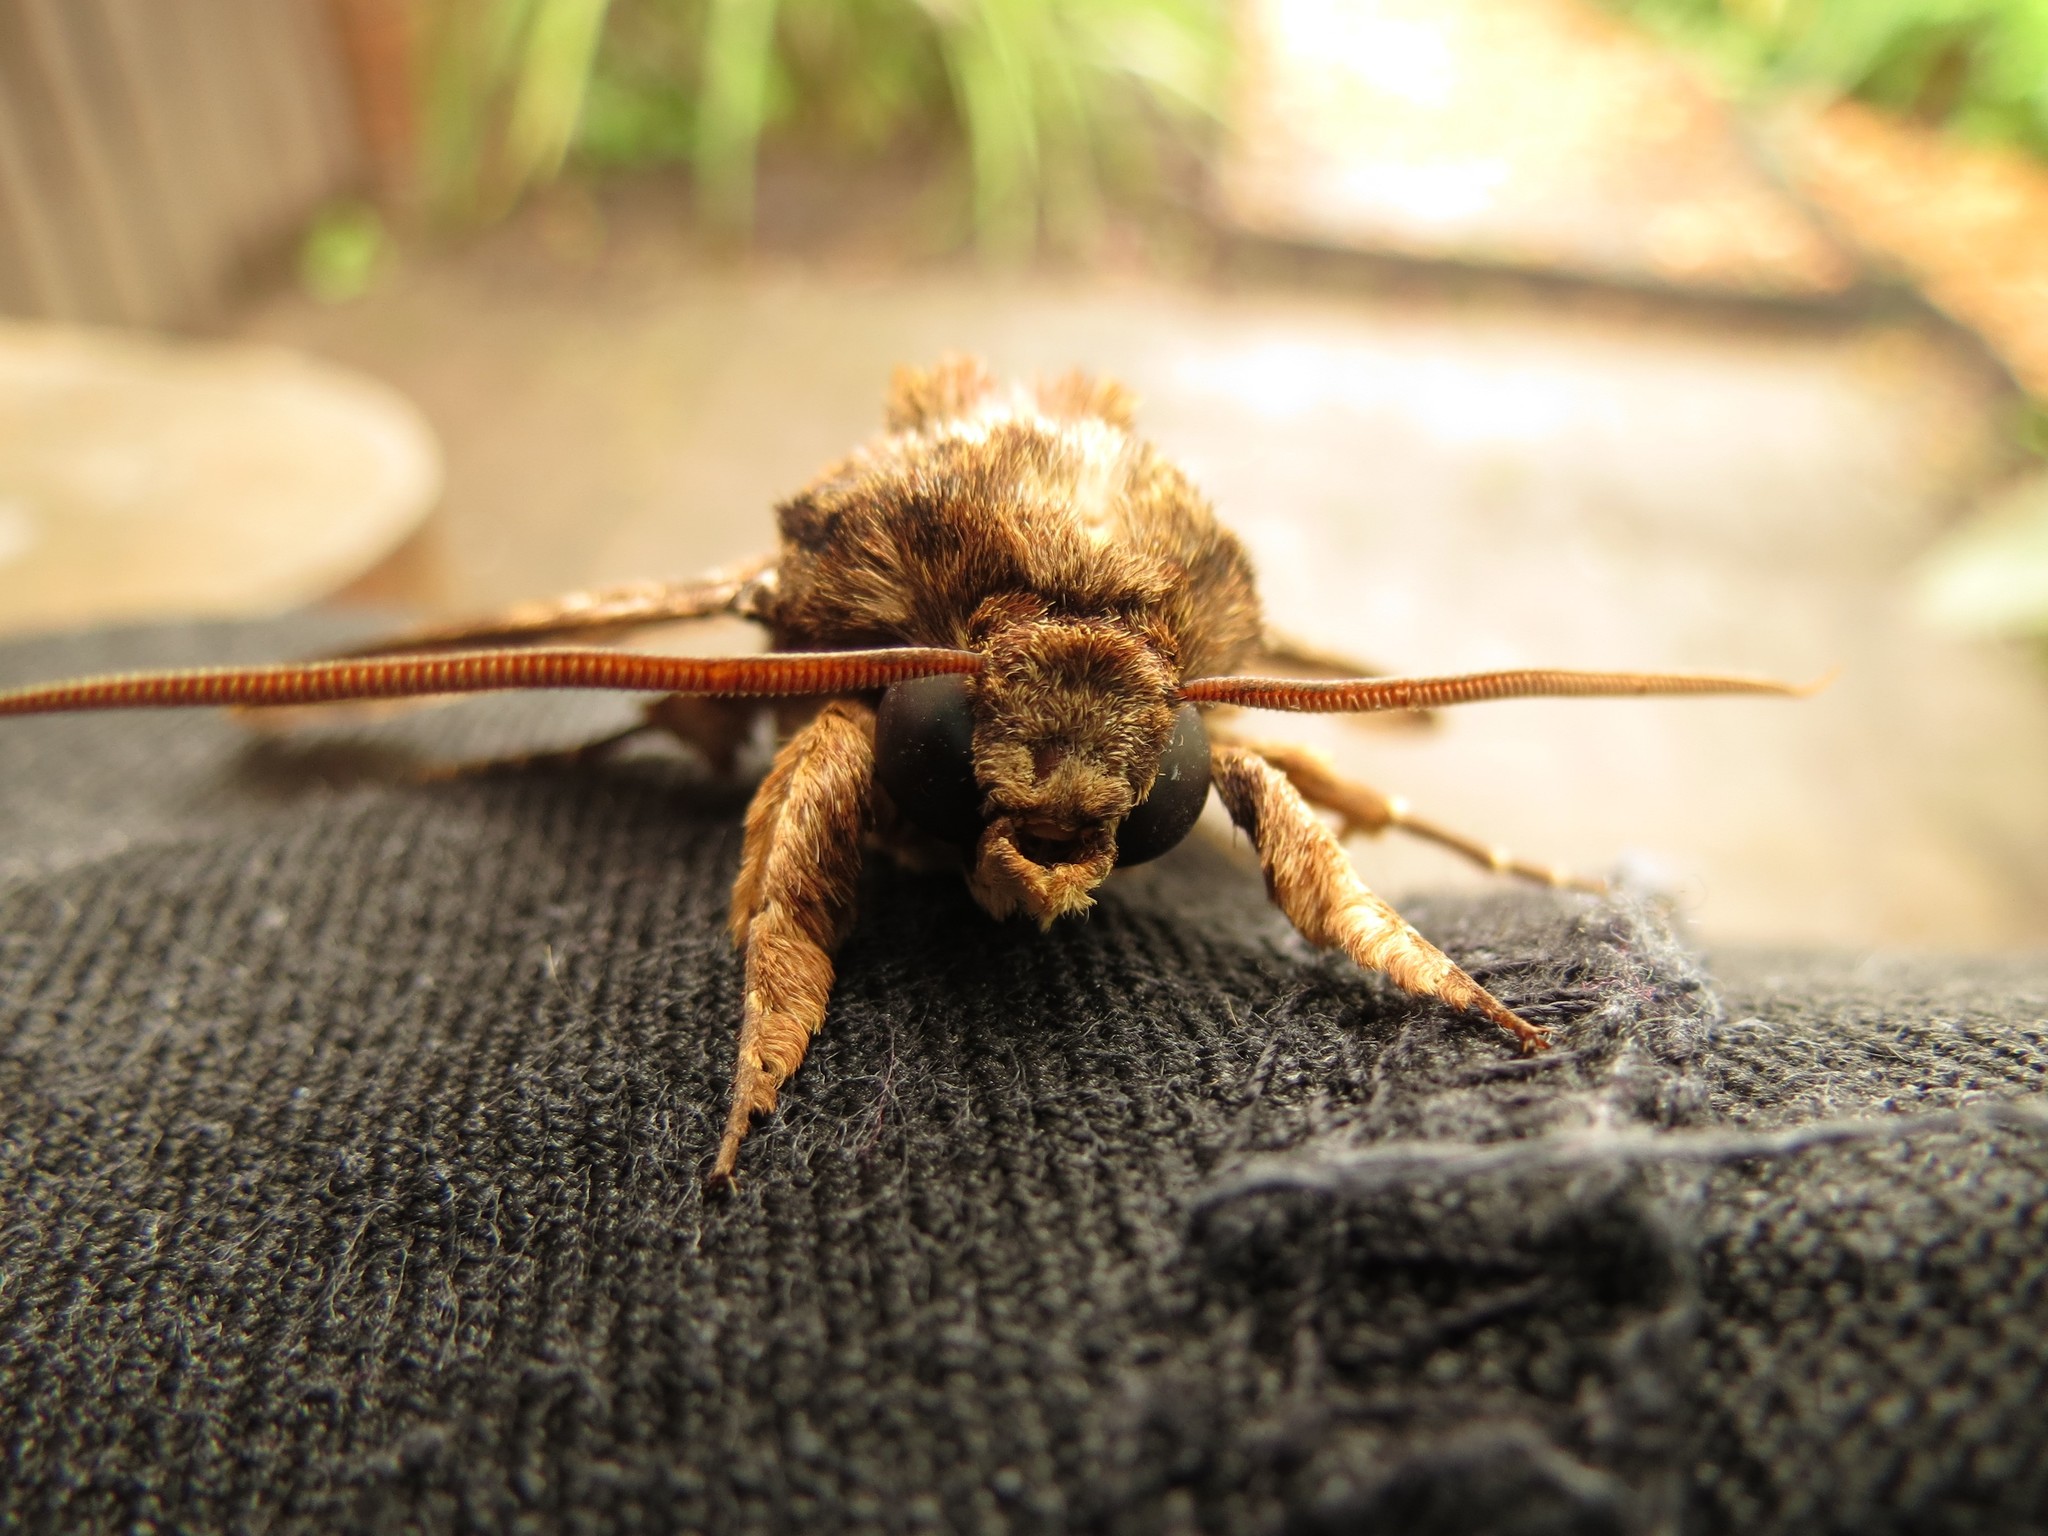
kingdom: Animalia
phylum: Arthropoda
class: Insecta
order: Lepidoptera
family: Sphingidae
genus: Coelonia
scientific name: Coelonia fulvinotata
